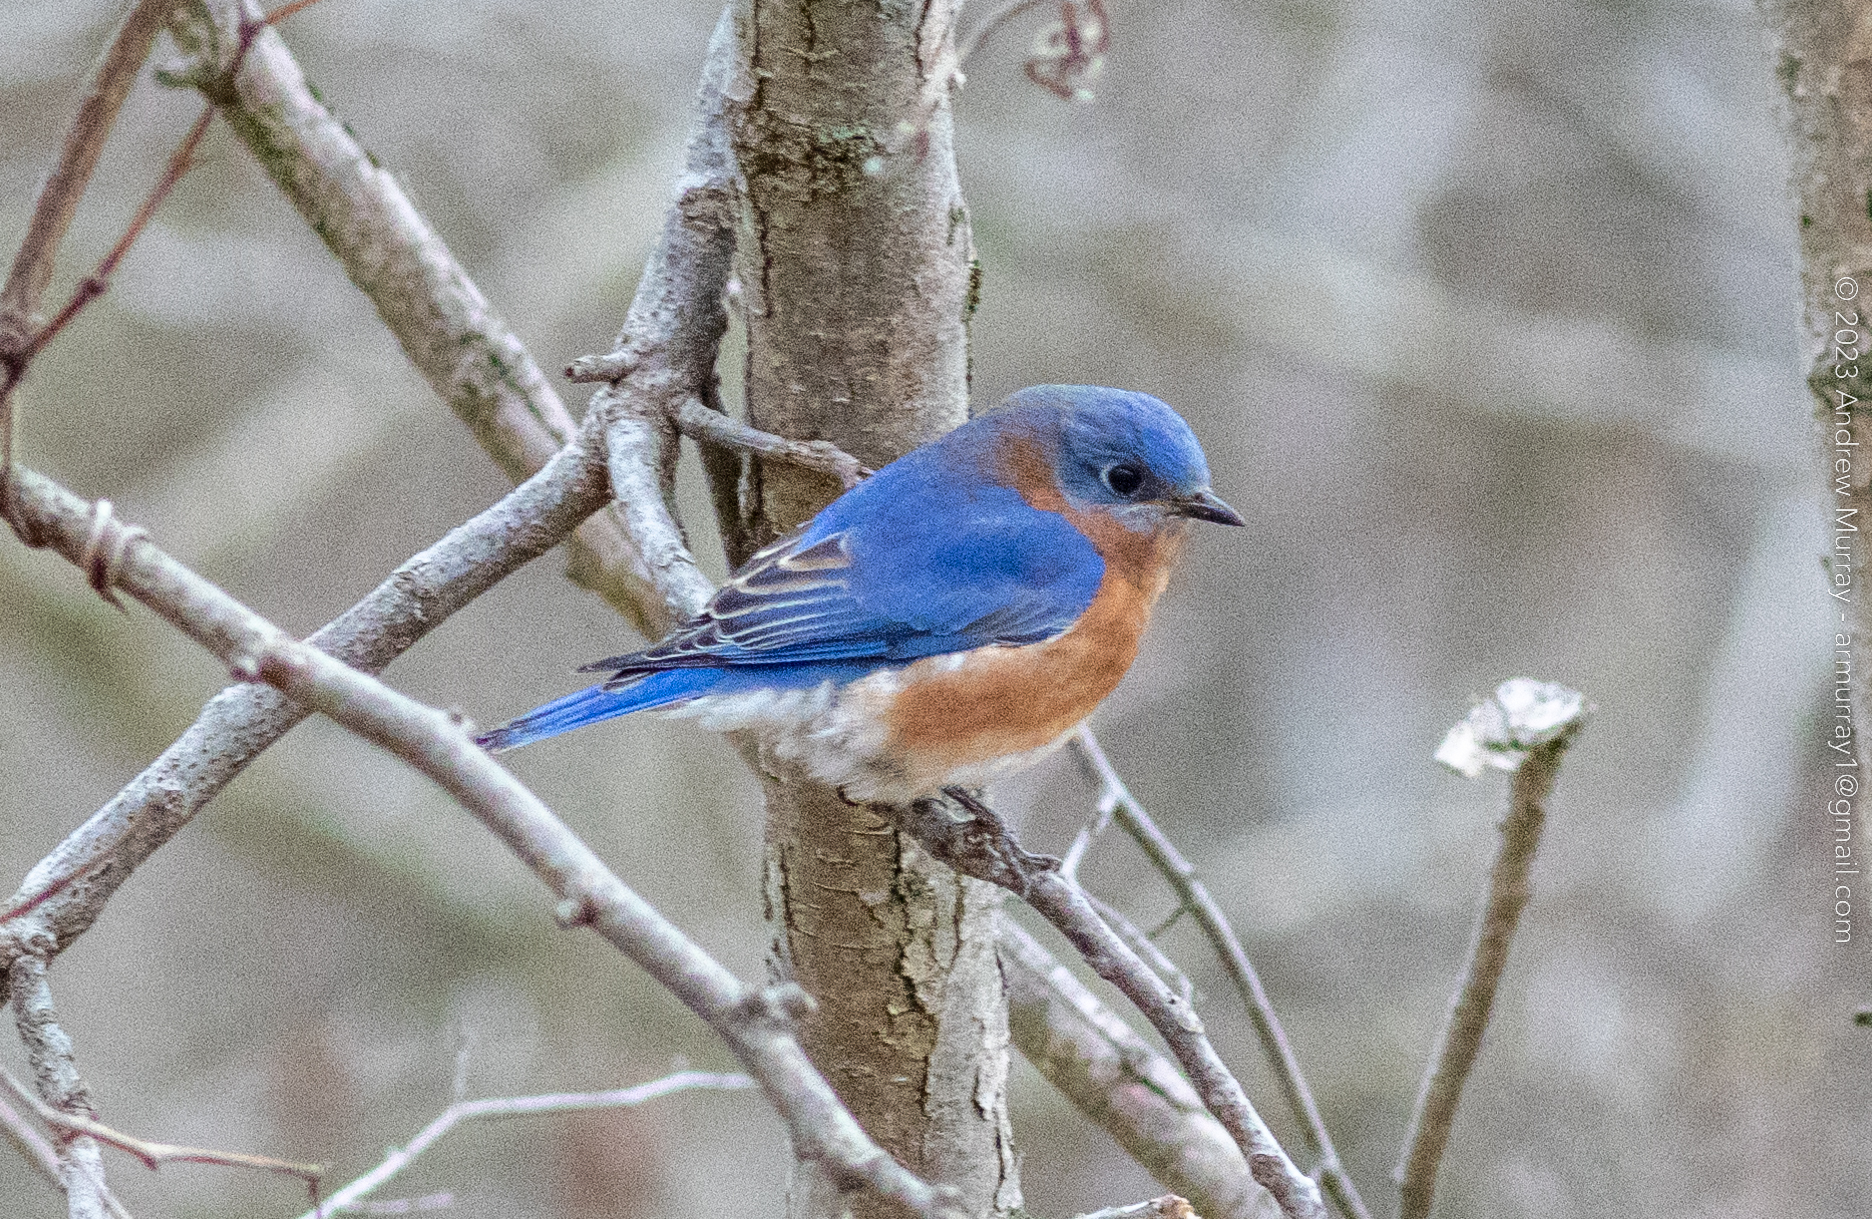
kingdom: Animalia
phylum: Chordata
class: Aves
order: Passeriformes
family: Turdidae
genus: Sialia
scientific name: Sialia sialis
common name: Eastern bluebird
